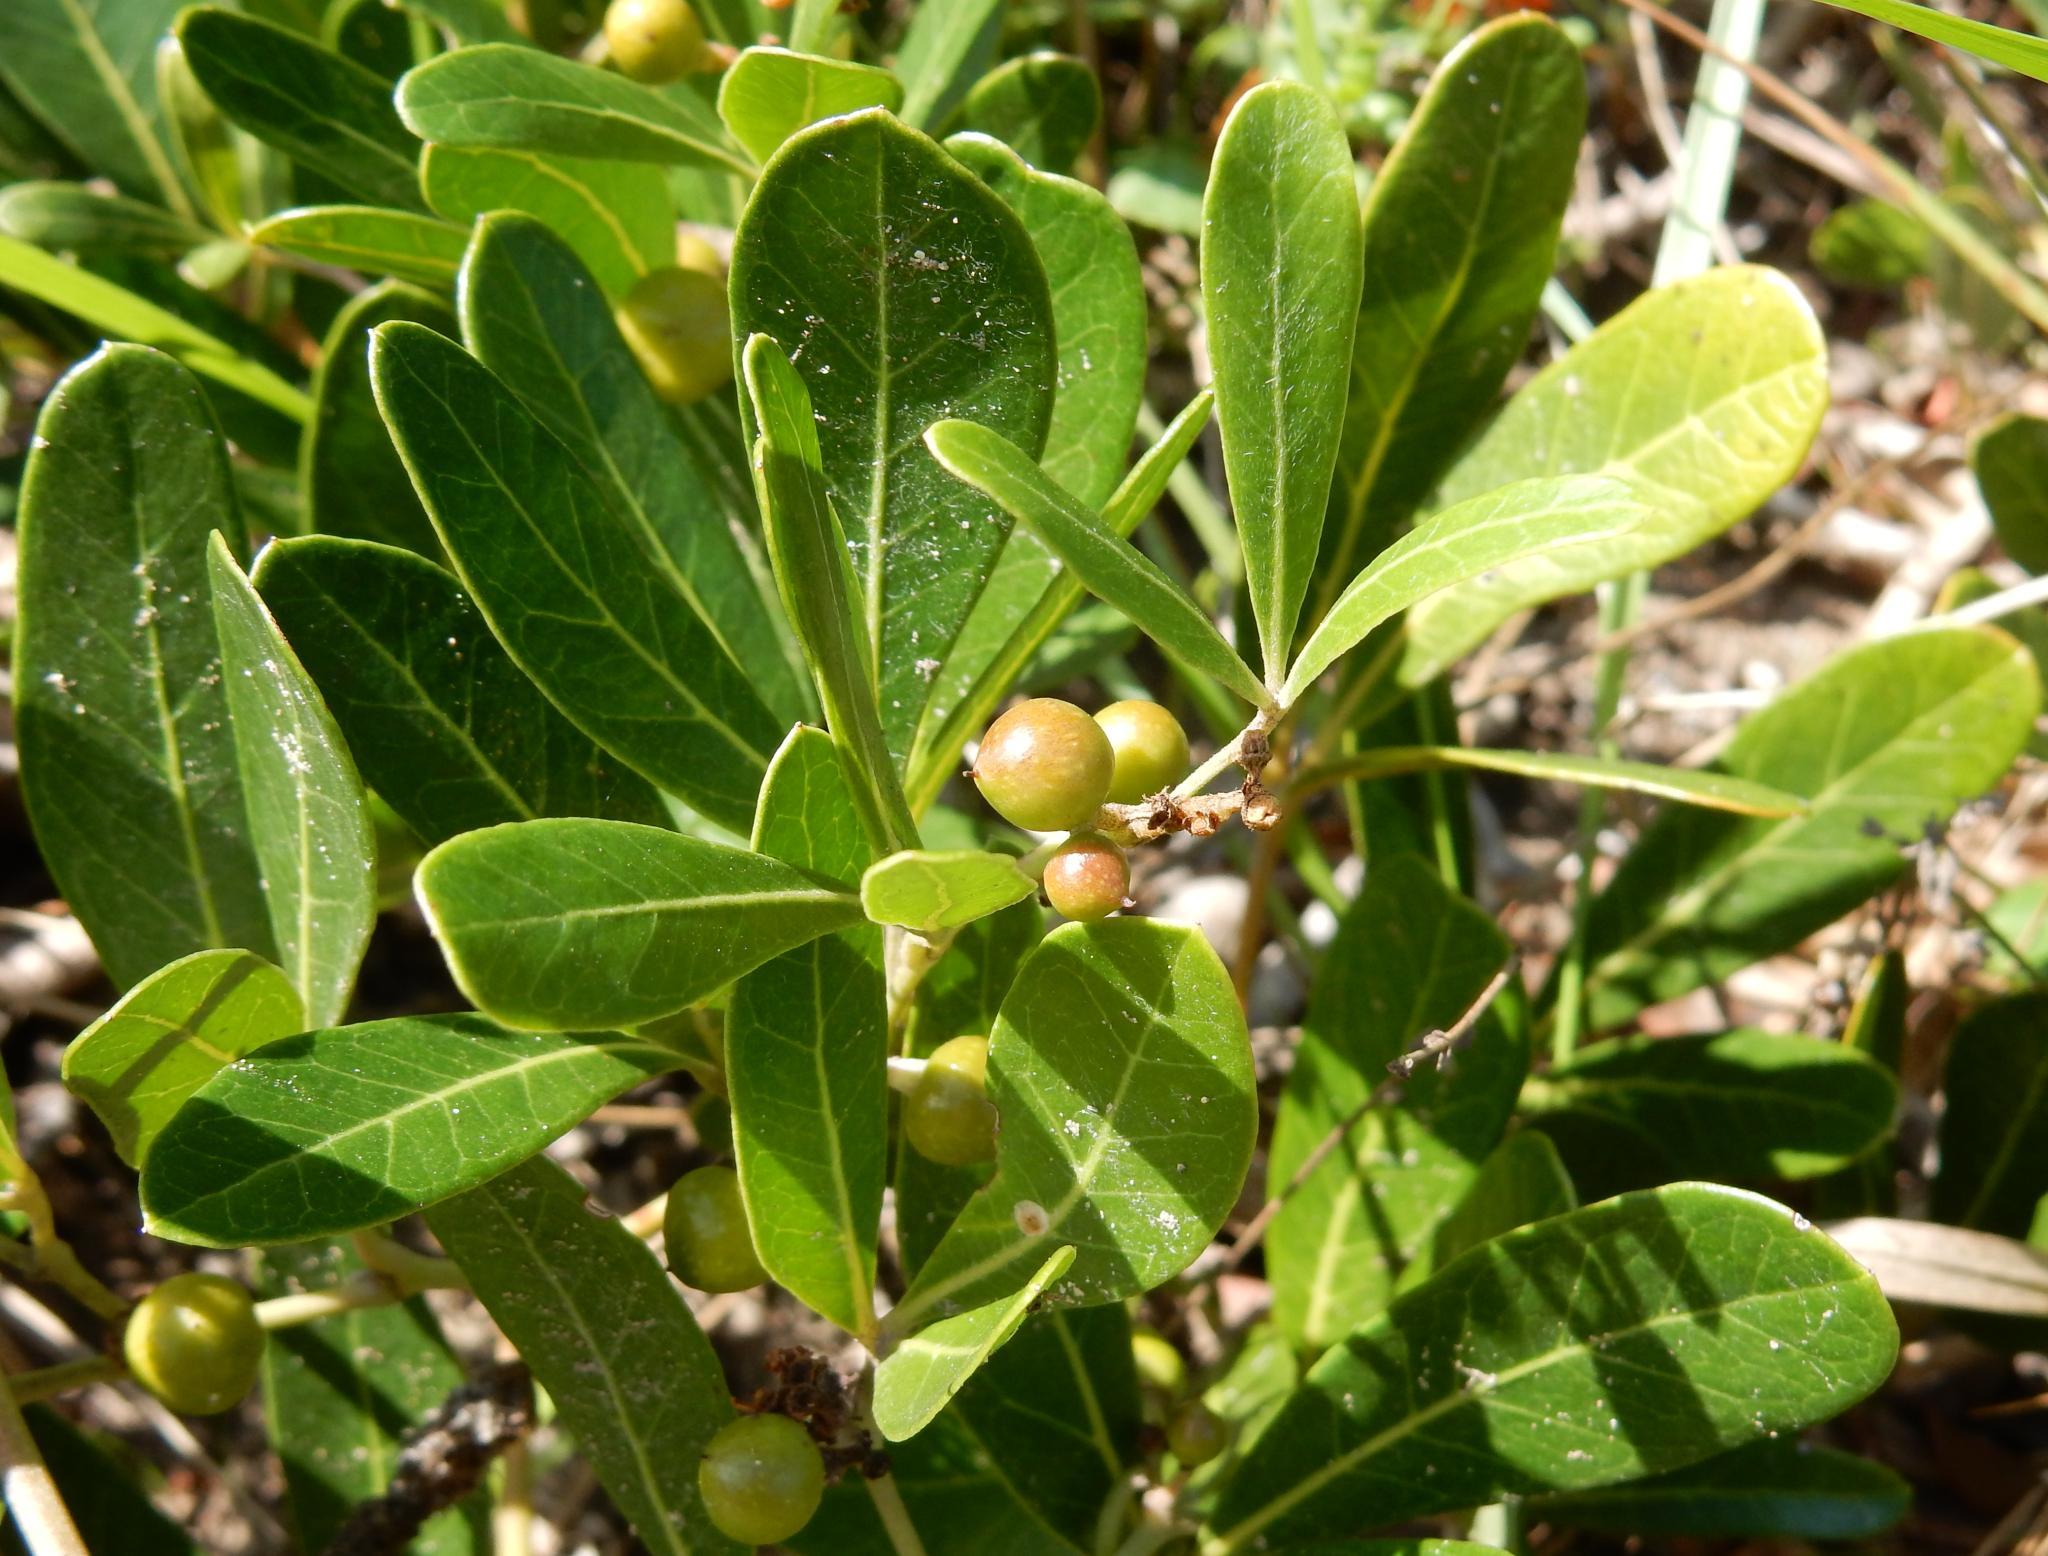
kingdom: Plantae
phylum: Tracheophyta
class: Magnoliopsida
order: Vitales
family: Vitaceae
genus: Rhoicissus
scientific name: Rhoicissus digitata
